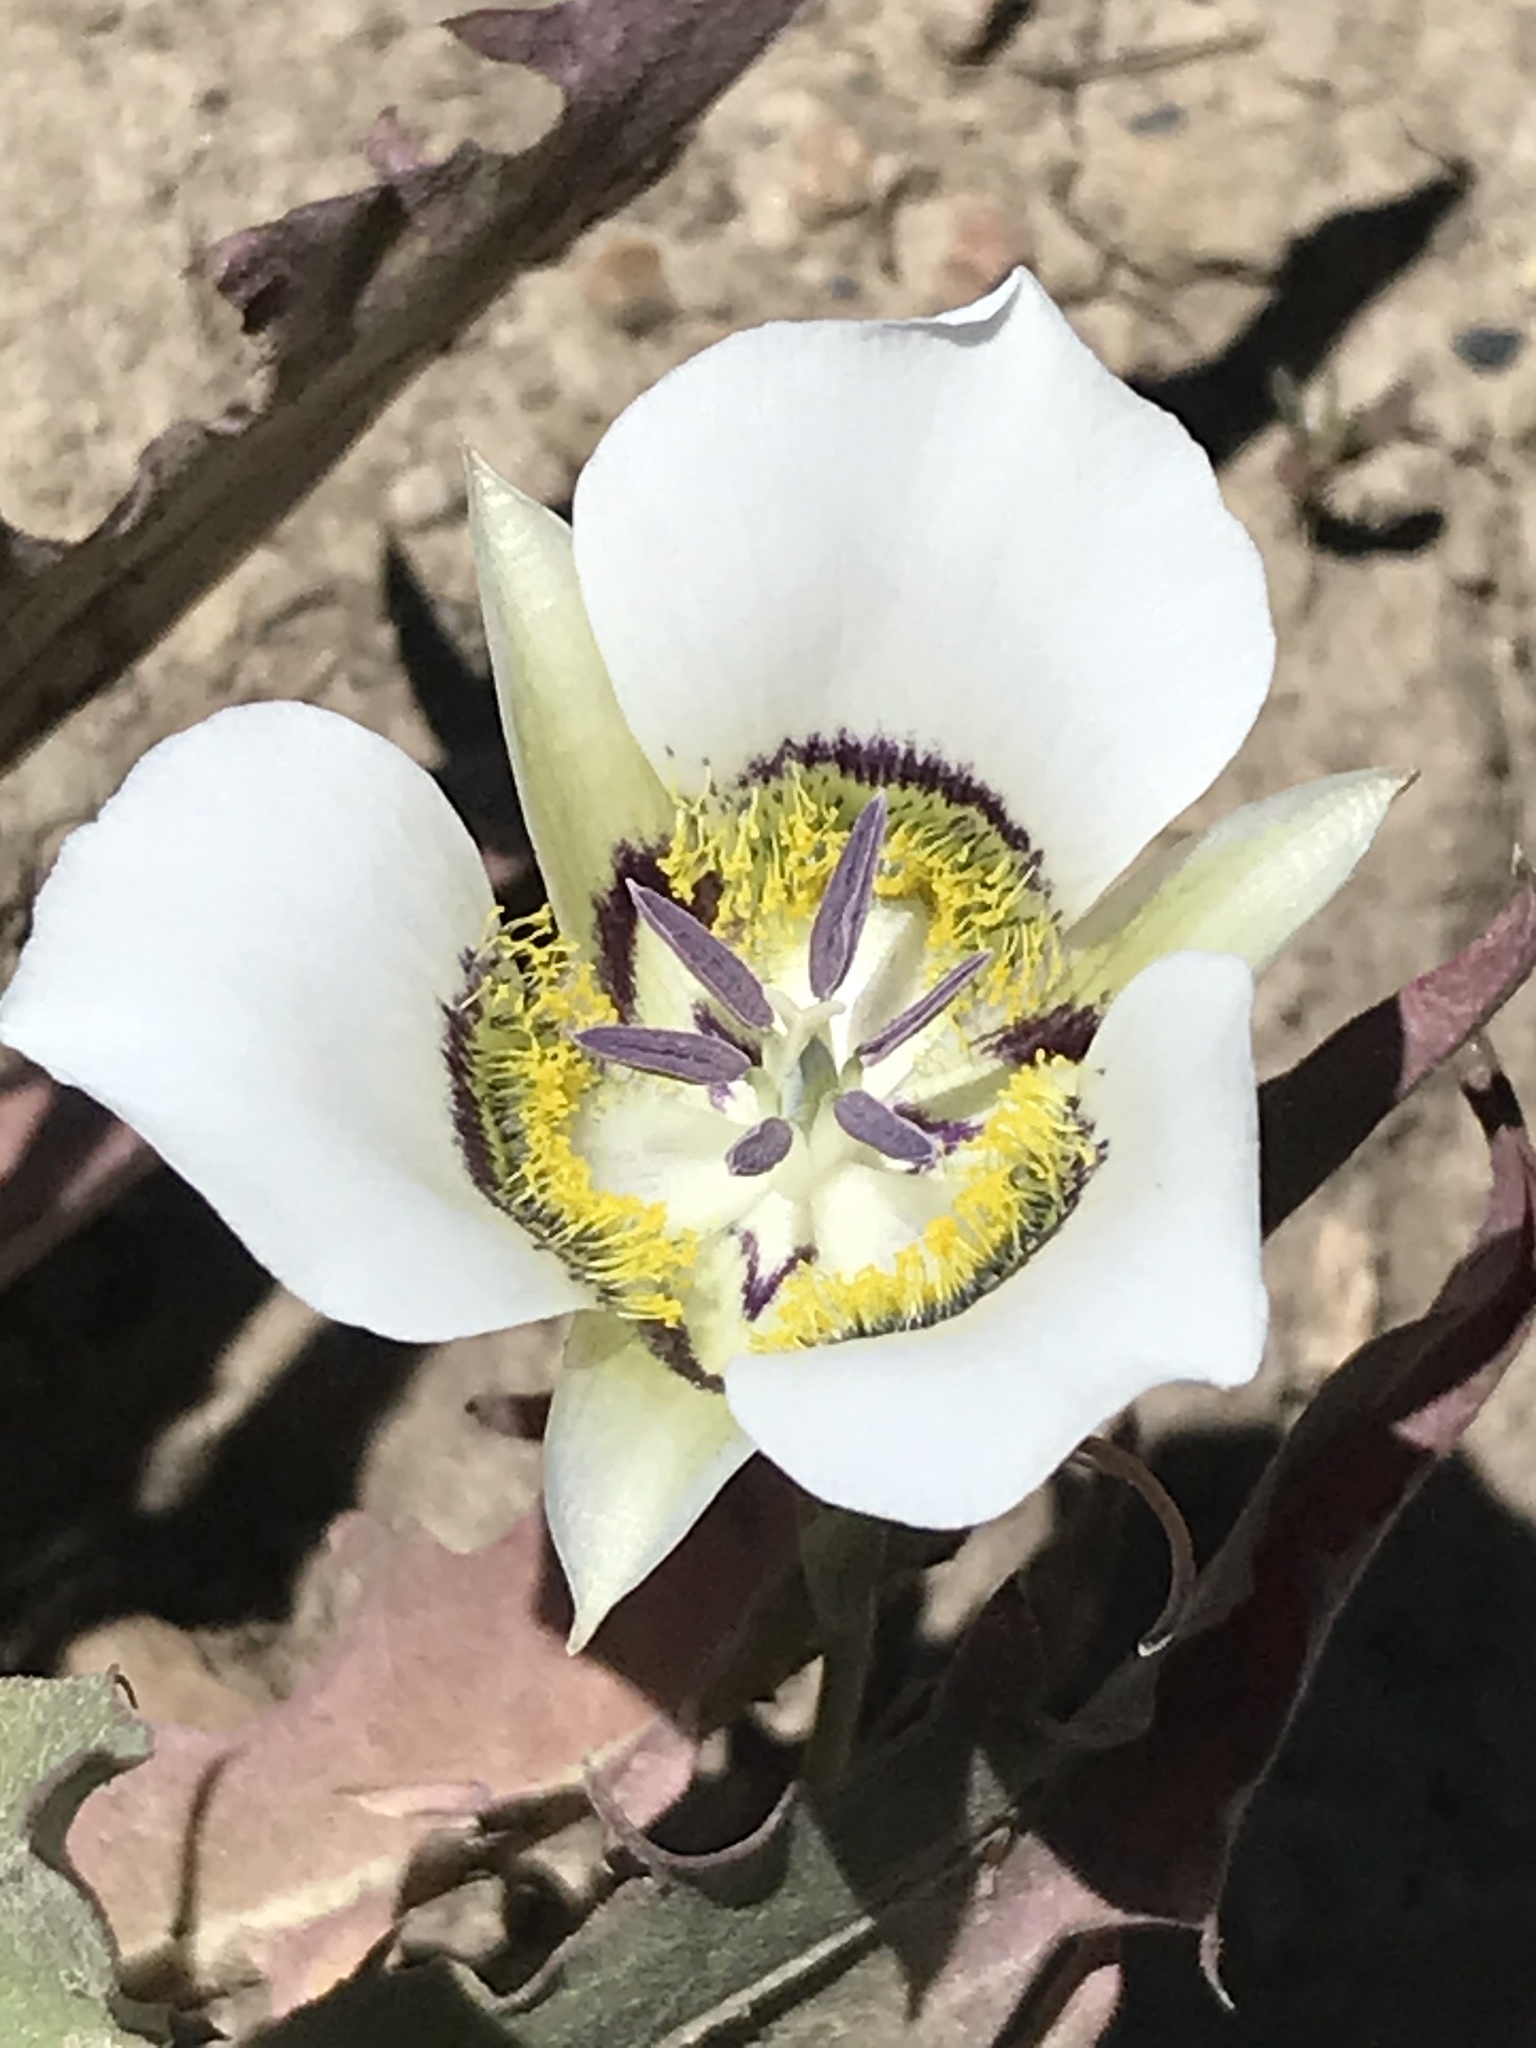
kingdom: Plantae
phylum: Tracheophyta
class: Liliopsida
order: Liliales
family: Liliaceae
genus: Calochortus
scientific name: Calochortus gunnisonii
